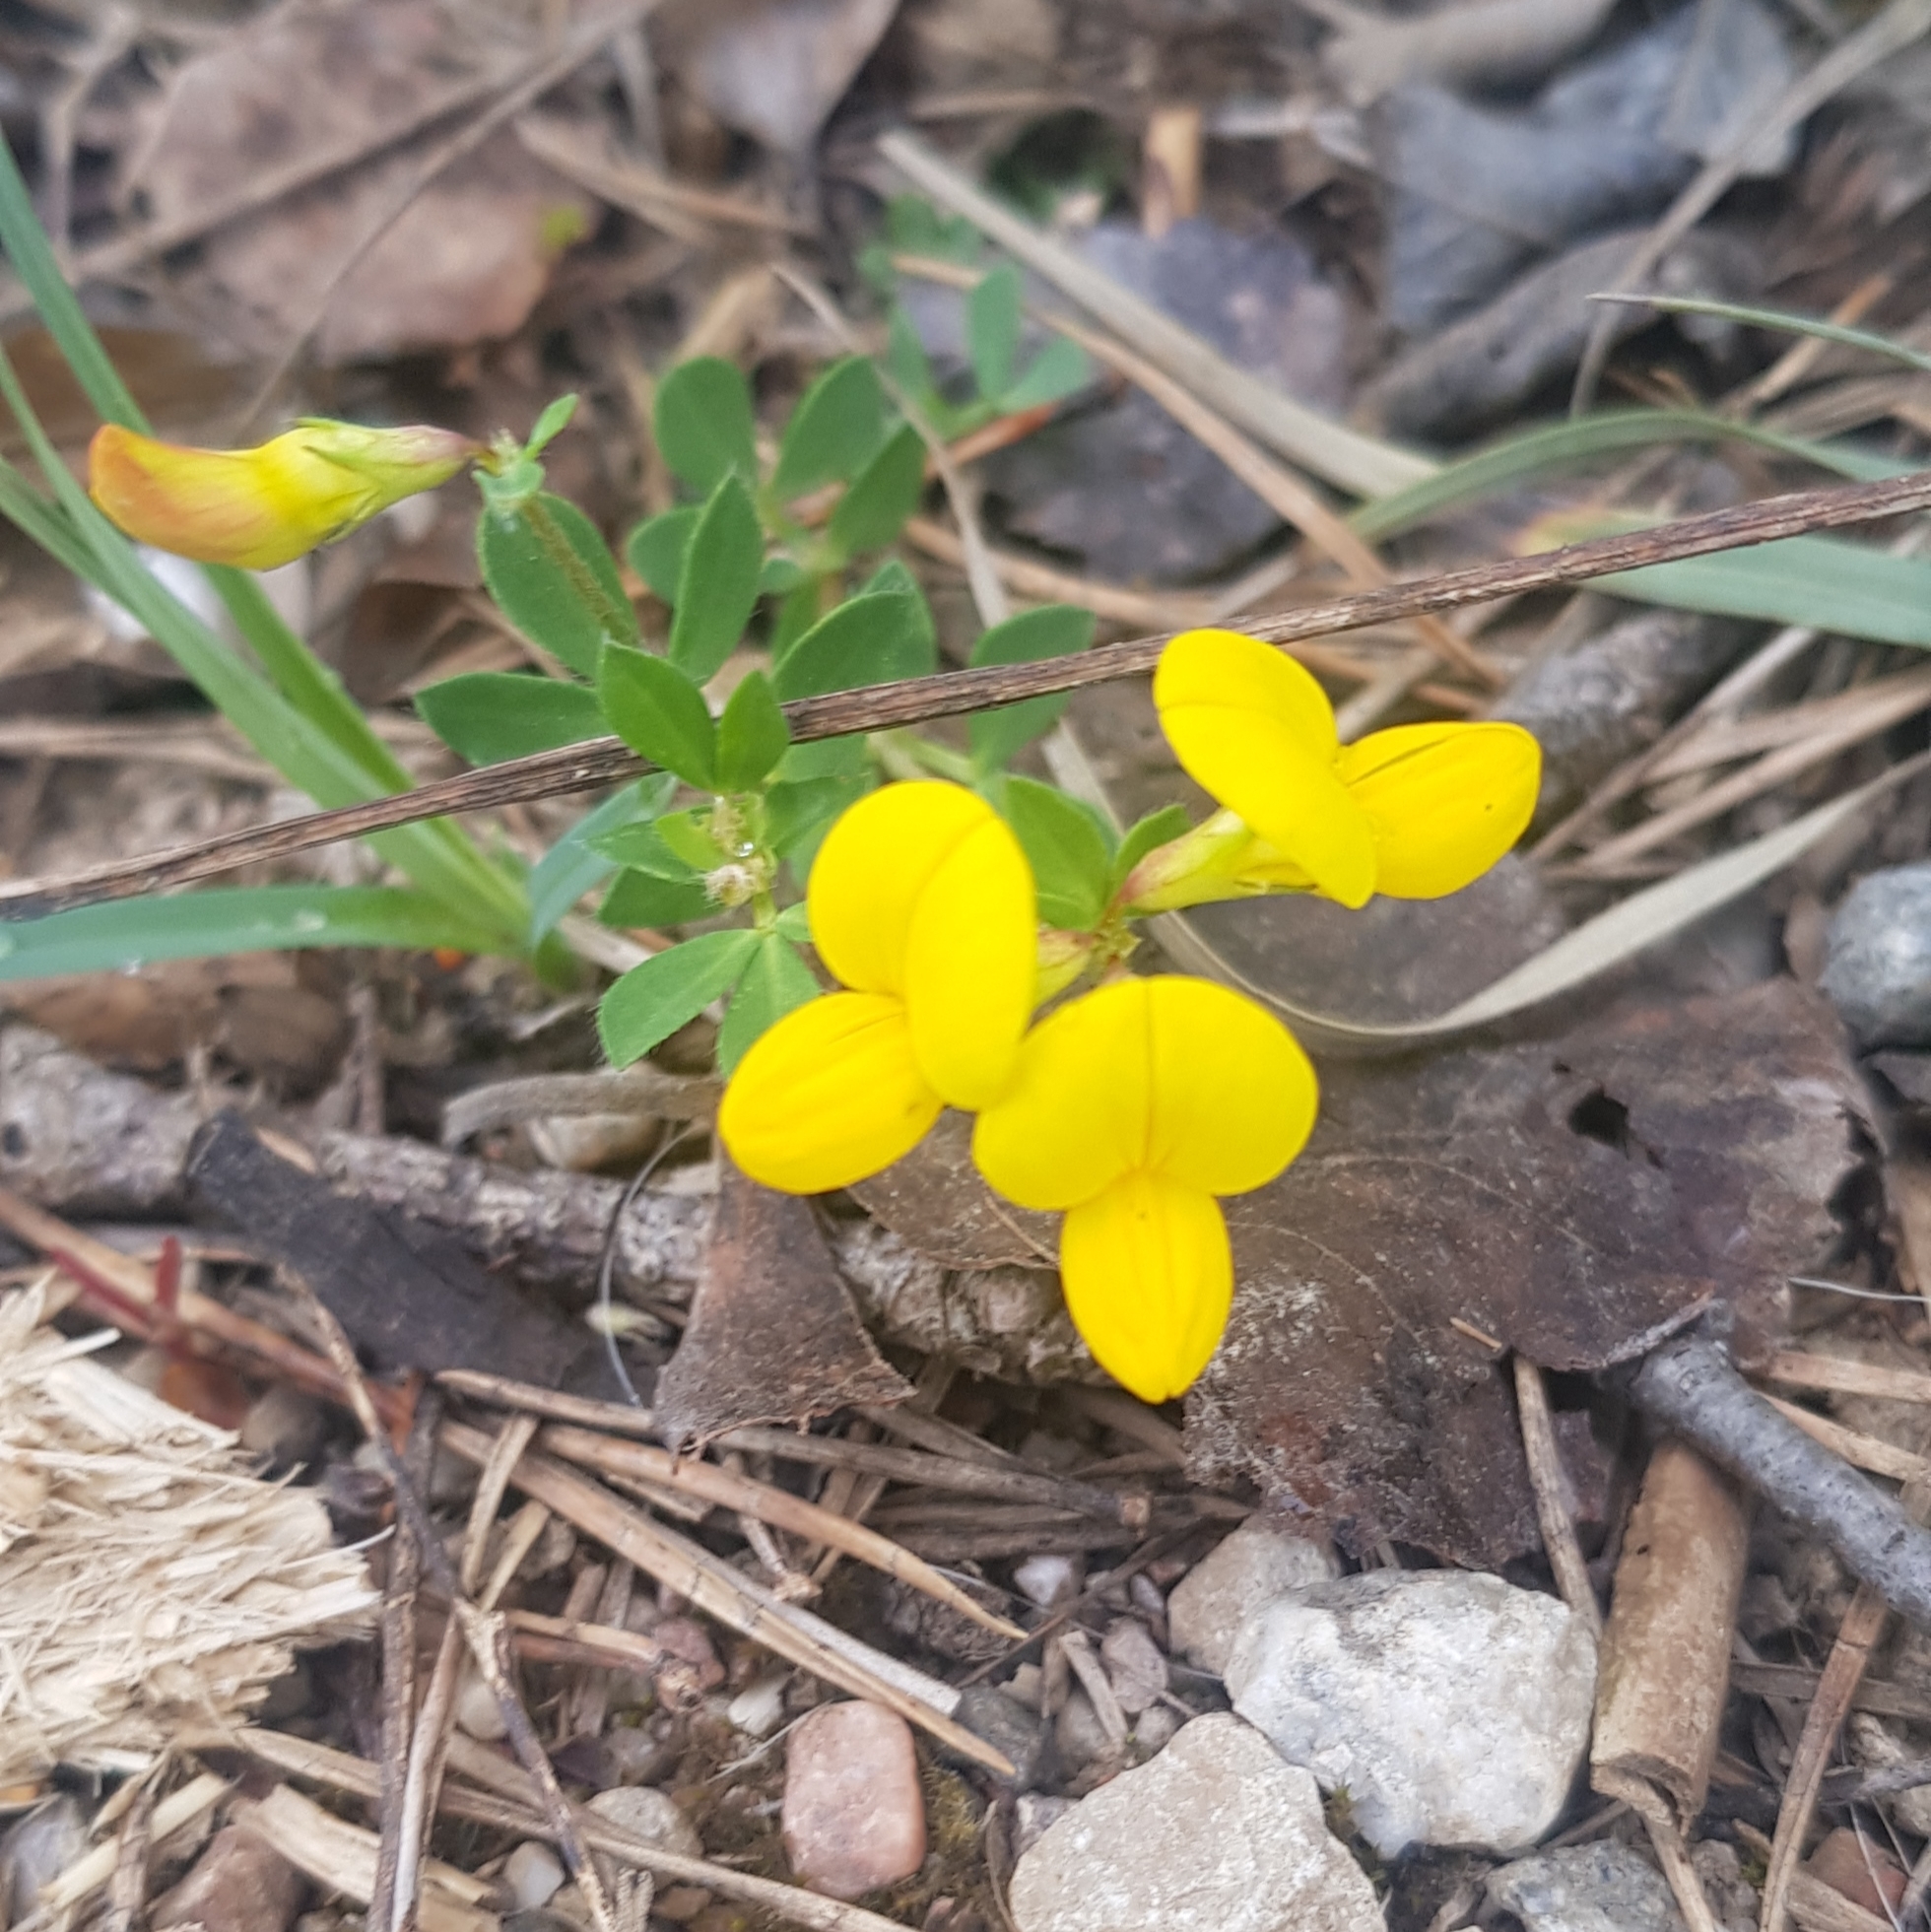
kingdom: Plantae
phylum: Tracheophyta
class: Magnoliopsida
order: Fabales
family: Fabaceae
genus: Lotus
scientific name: Lotus corniculatus
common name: Common bird's-foot-trefoil
